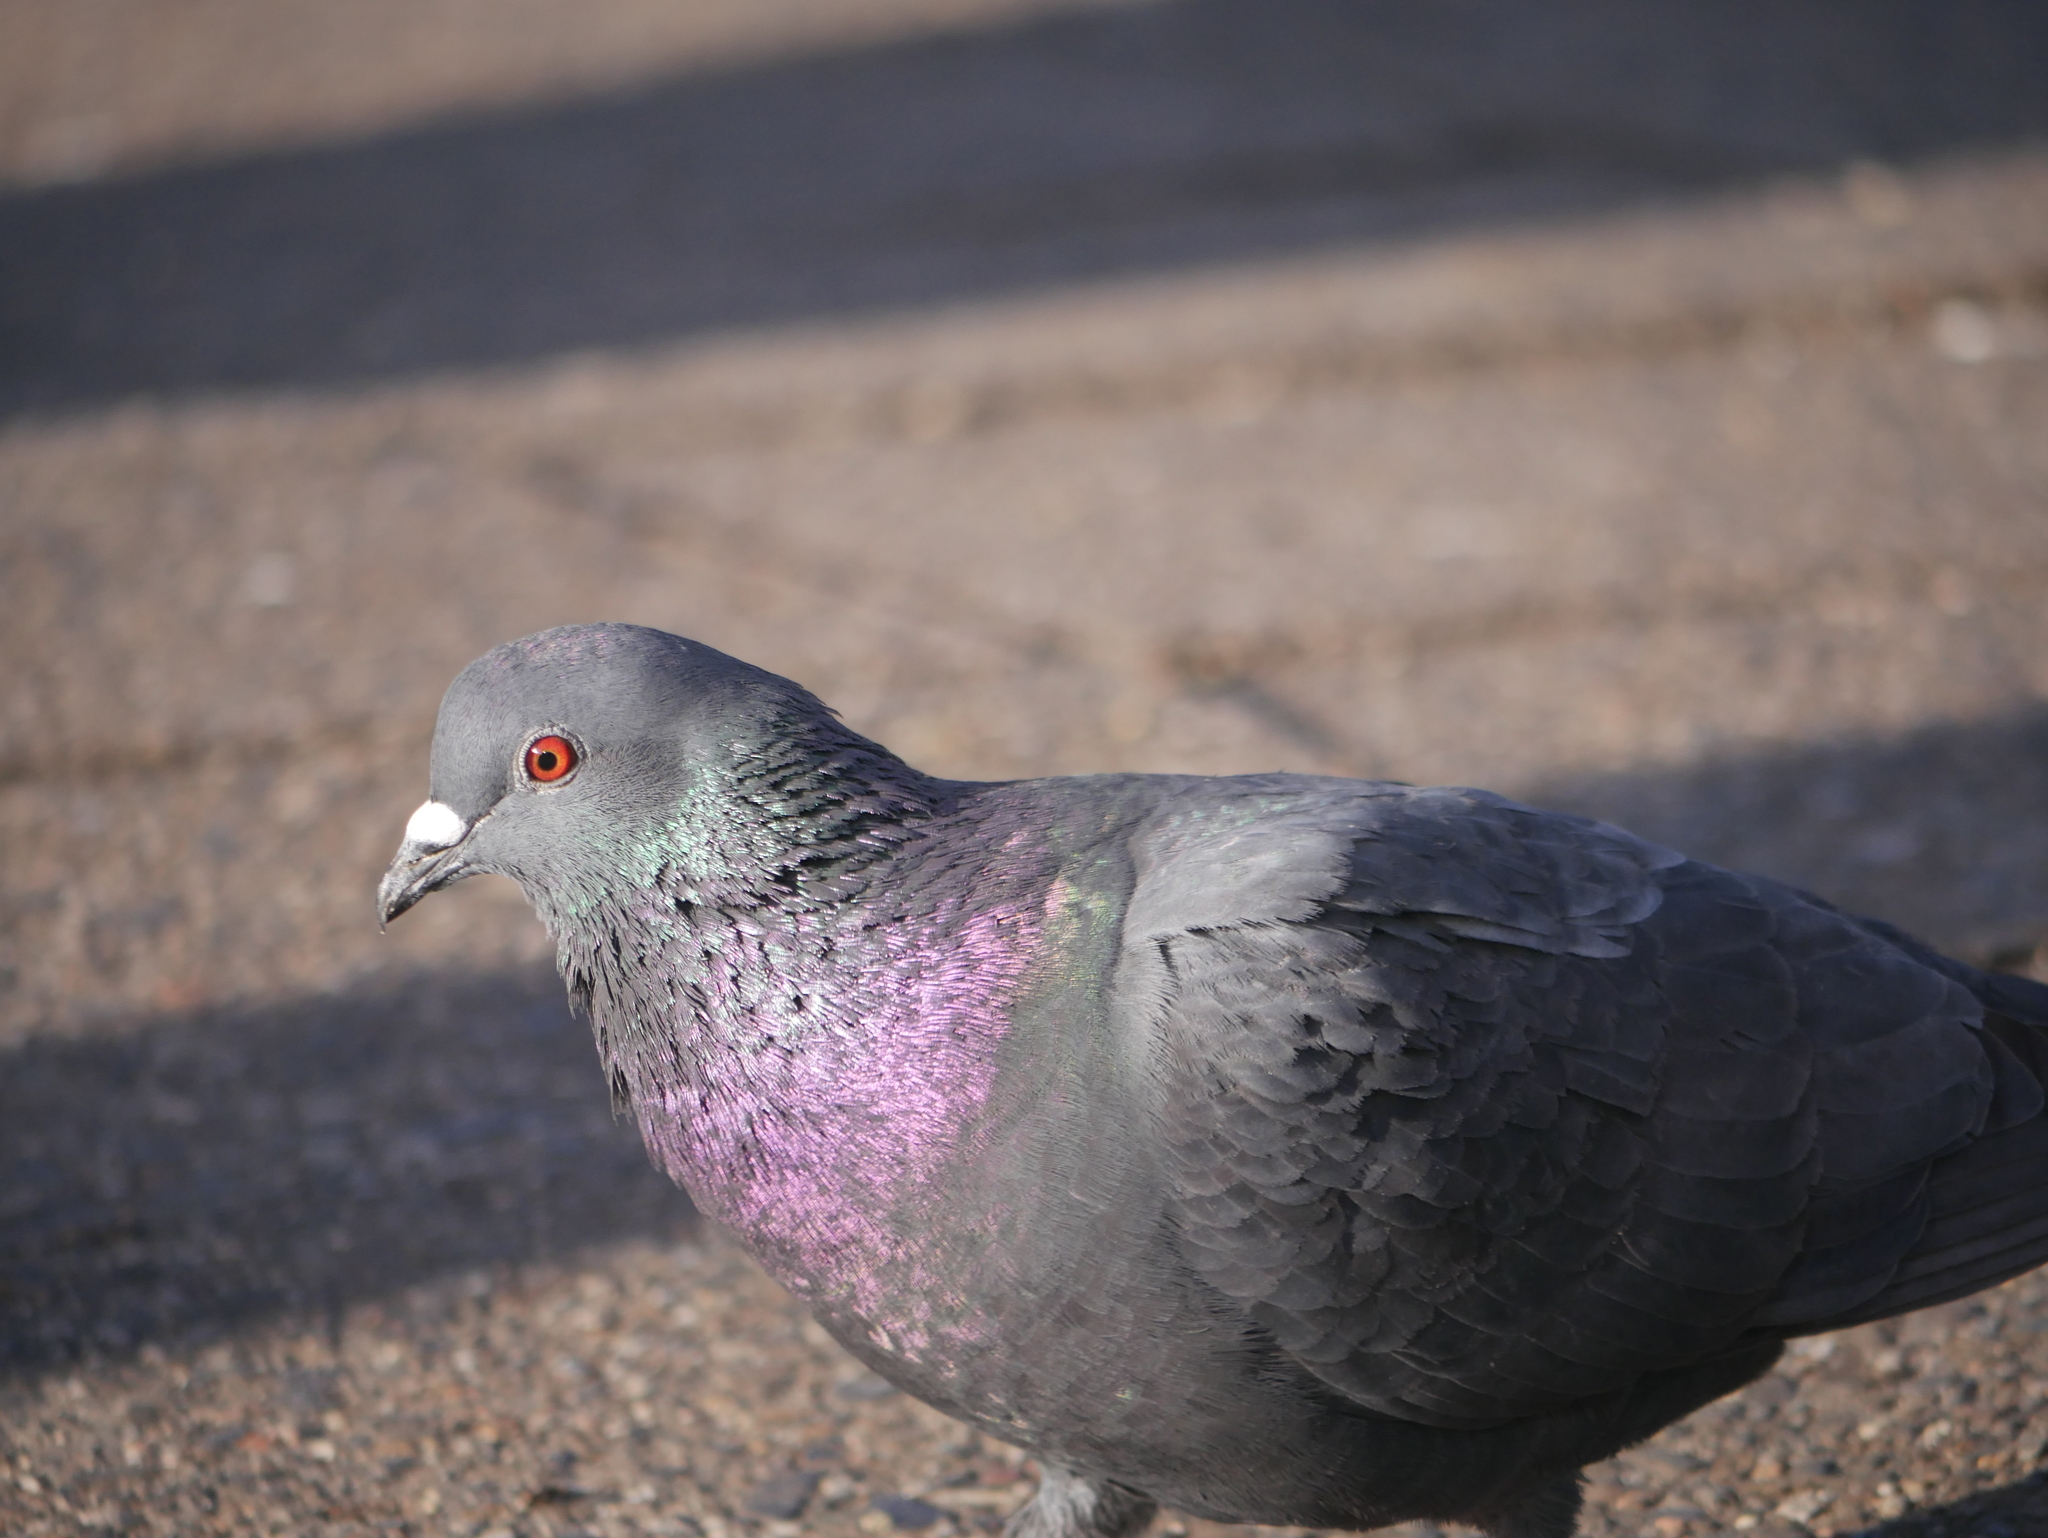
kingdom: Animalia
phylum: Chordata
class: Aves
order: Columbiformes
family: Columbidae
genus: Columba
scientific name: Columba livia
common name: Rock pigeon
